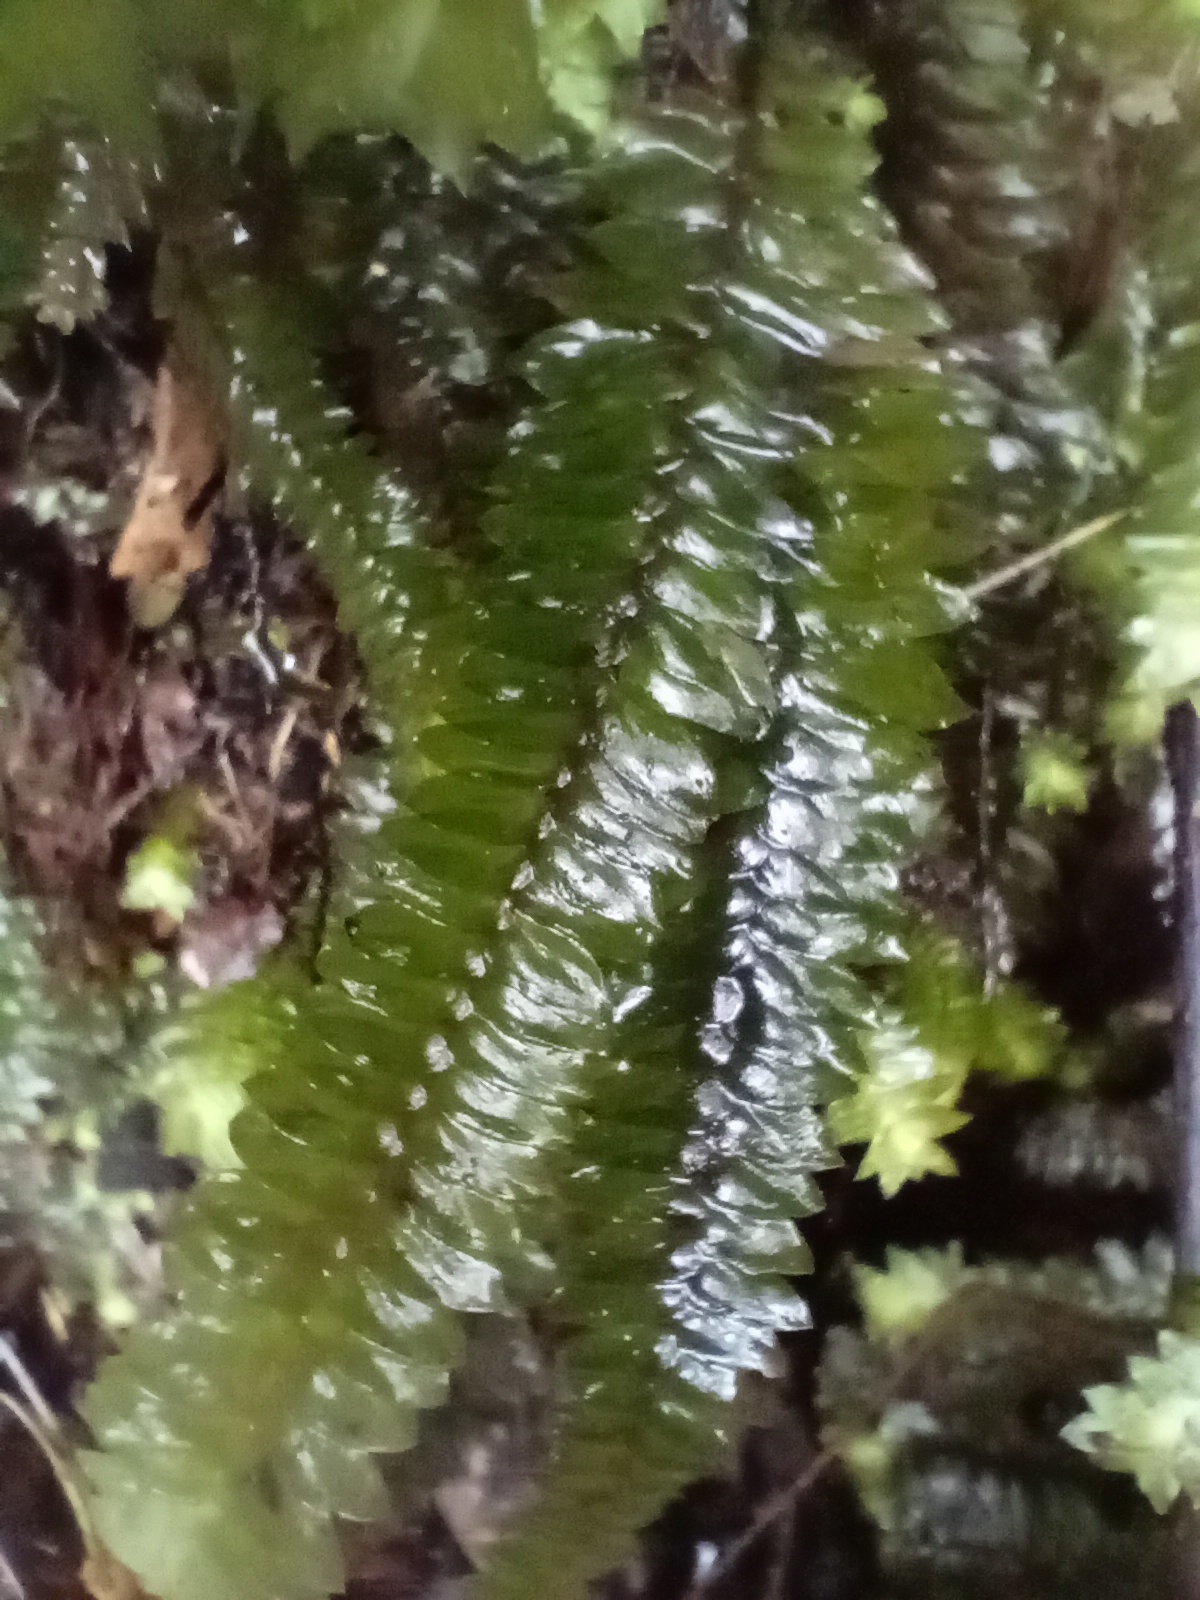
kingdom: Plantae
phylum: Bryophyta
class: Bryopsida
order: Hypopterygiales
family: Hypopterygiaceae
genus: Cyathophorum
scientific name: Cyathophorum bulbosum
